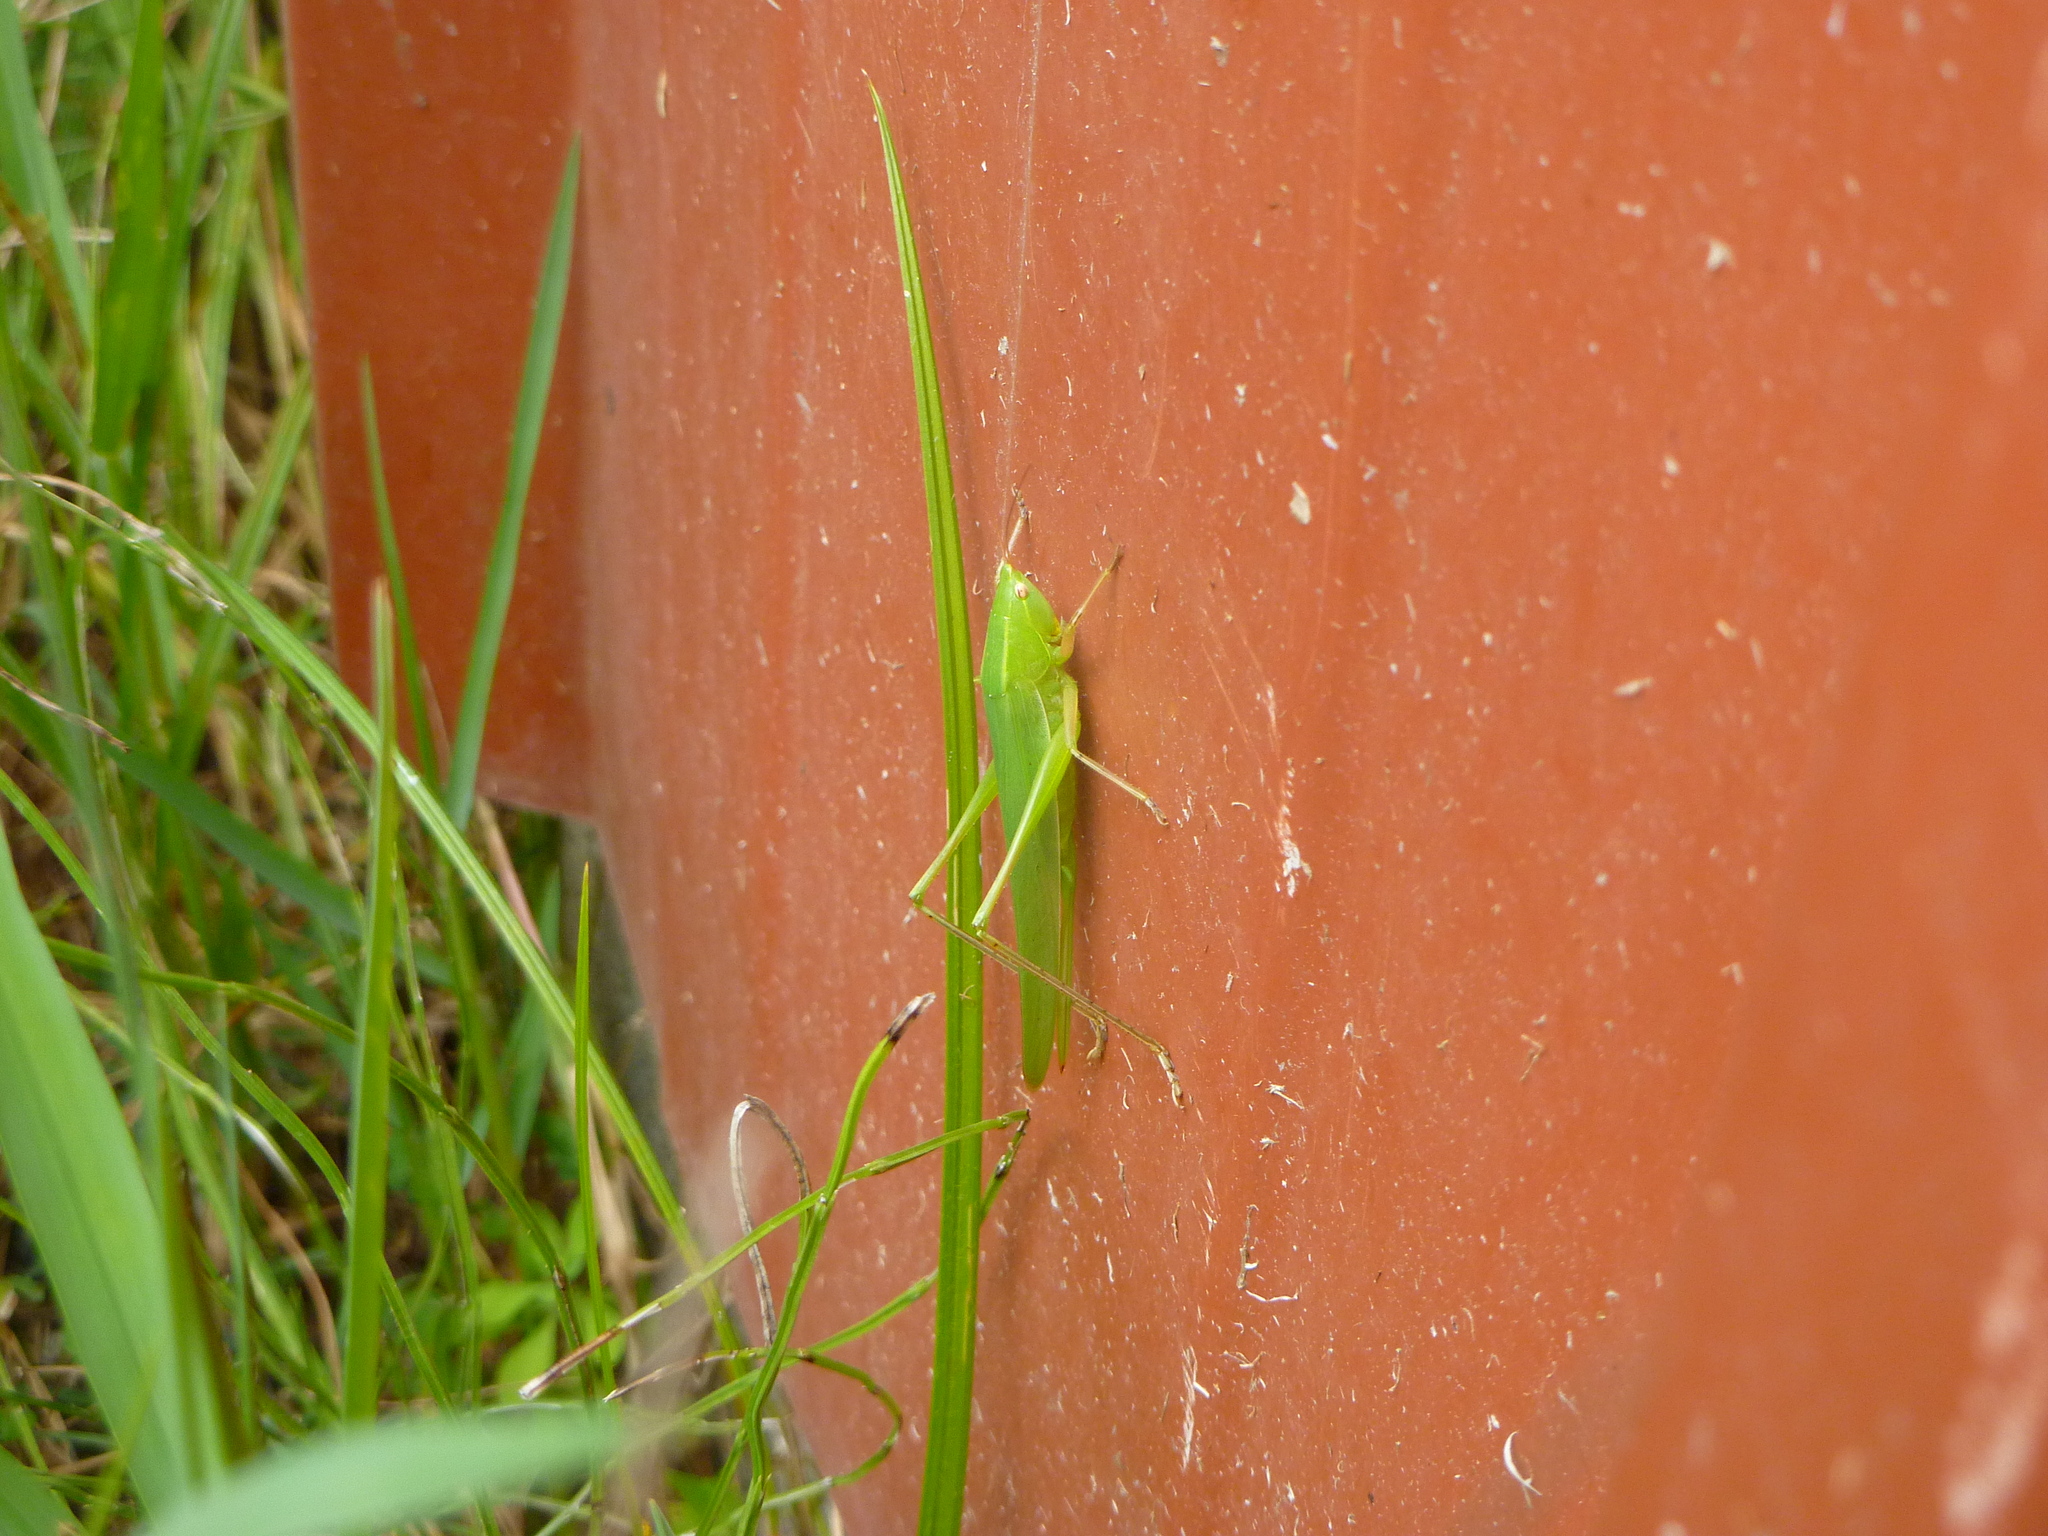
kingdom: Animalia
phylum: Arthropoda
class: Insecta
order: Orthoptera
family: Tettigoniidae
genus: Ruspolia
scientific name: Ruspolia nitidula
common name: Large conehead
